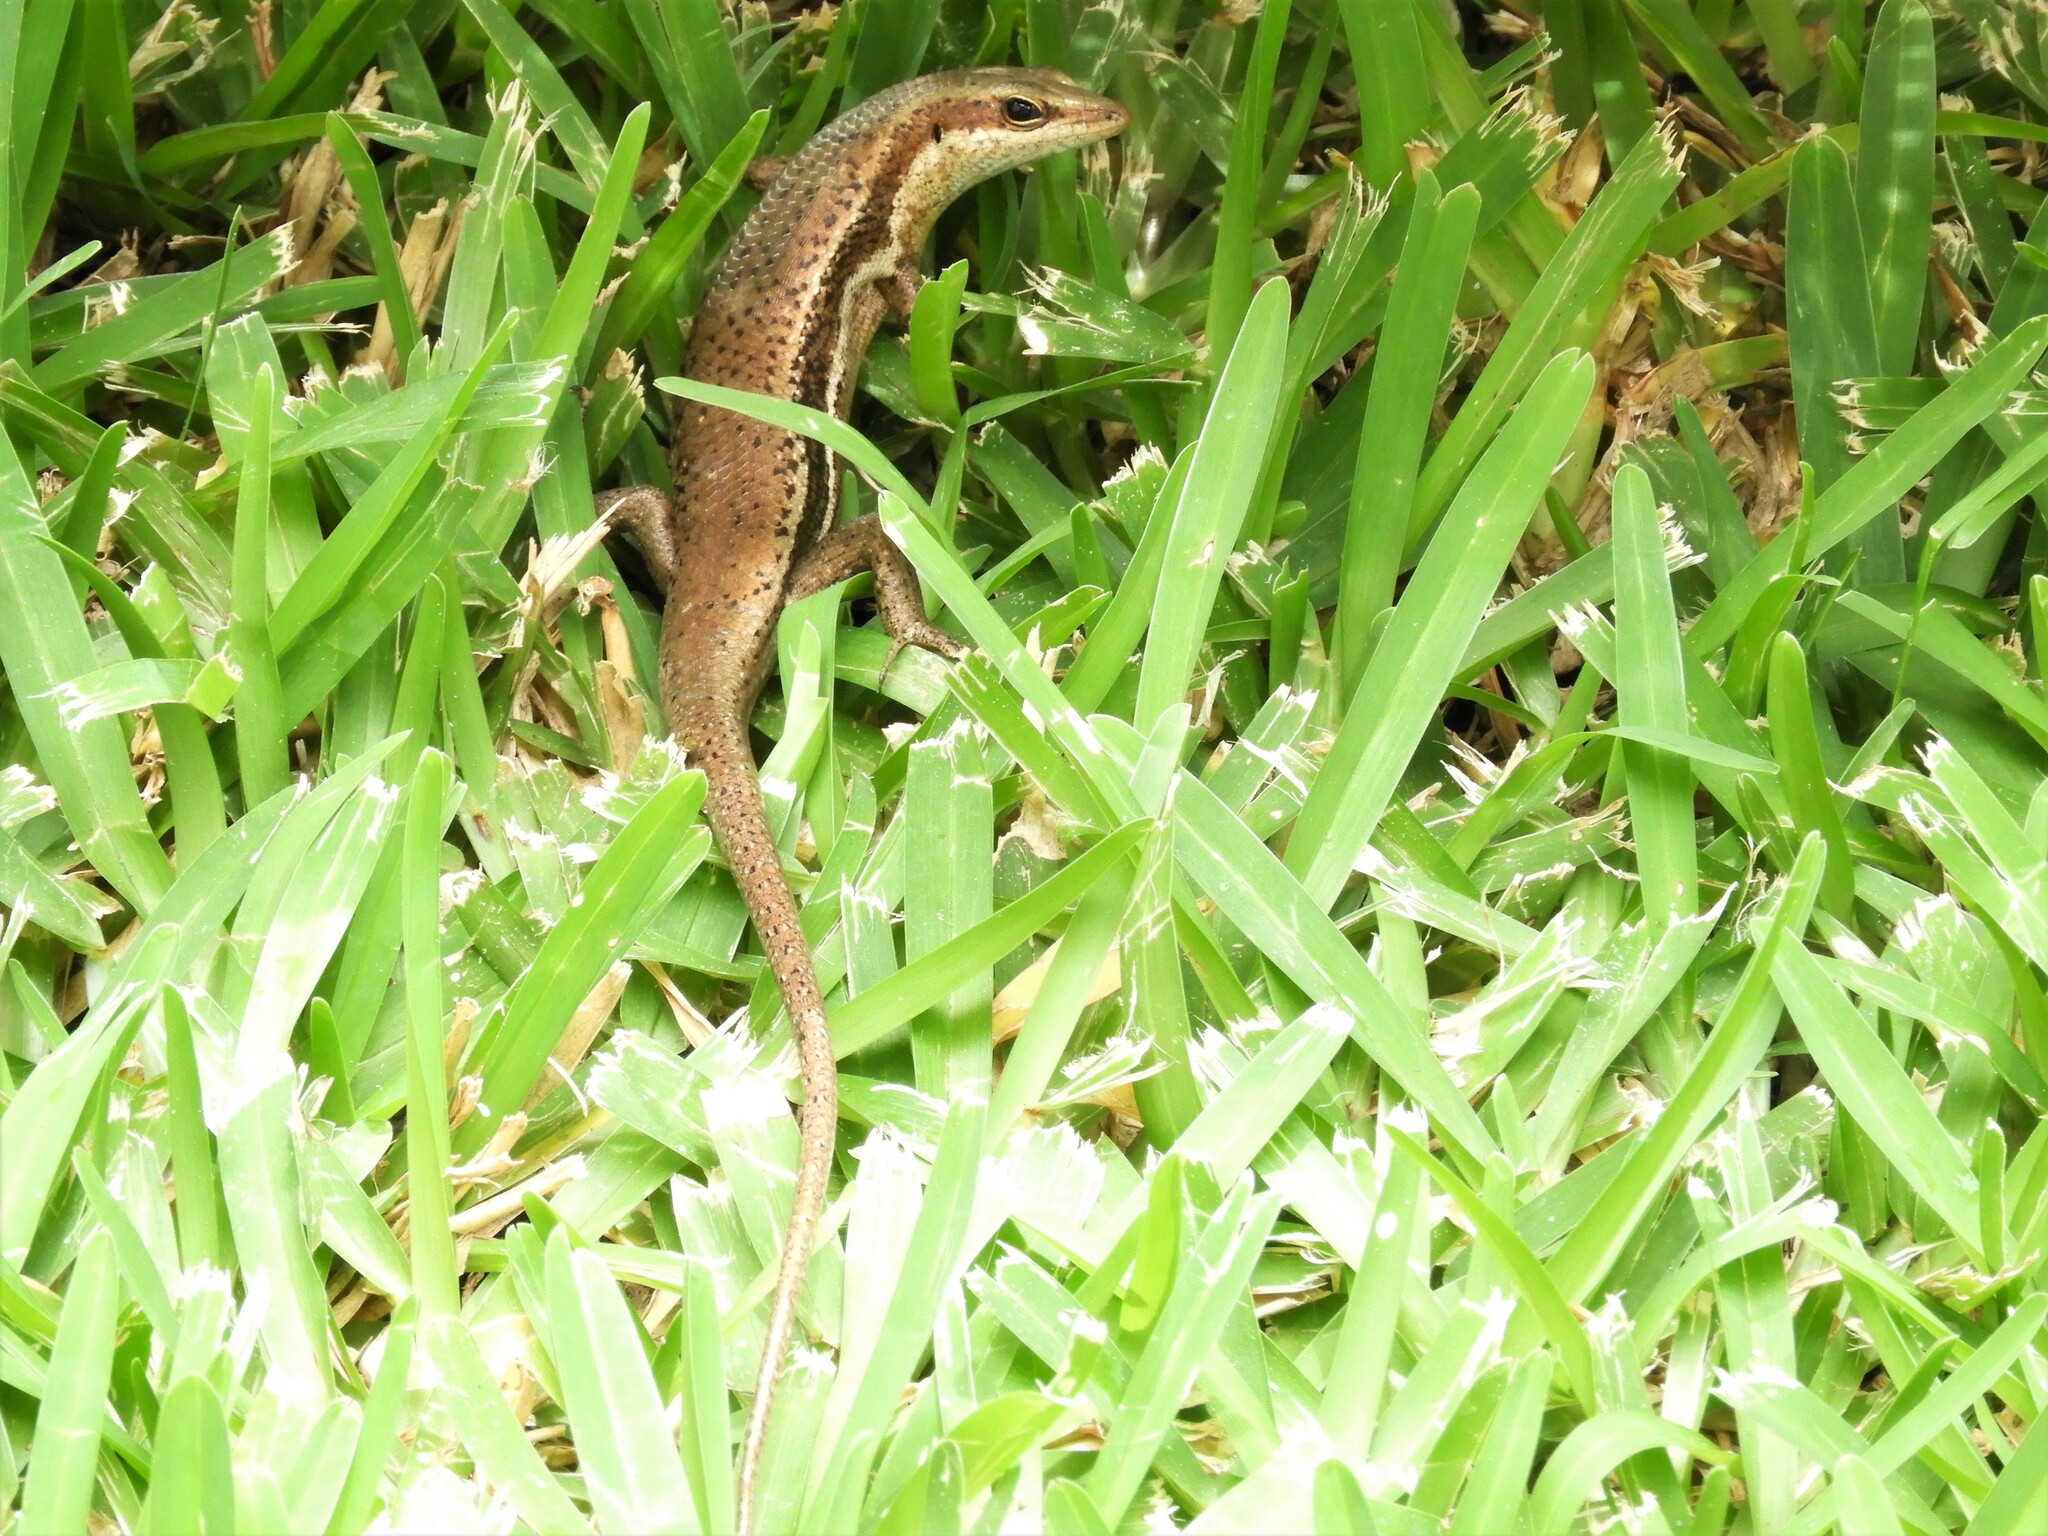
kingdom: Animalia
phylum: Chordata
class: Squamata
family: Scincidae
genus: Trachylepis
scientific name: Trachylepis sechellensis
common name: Seychelles skink
